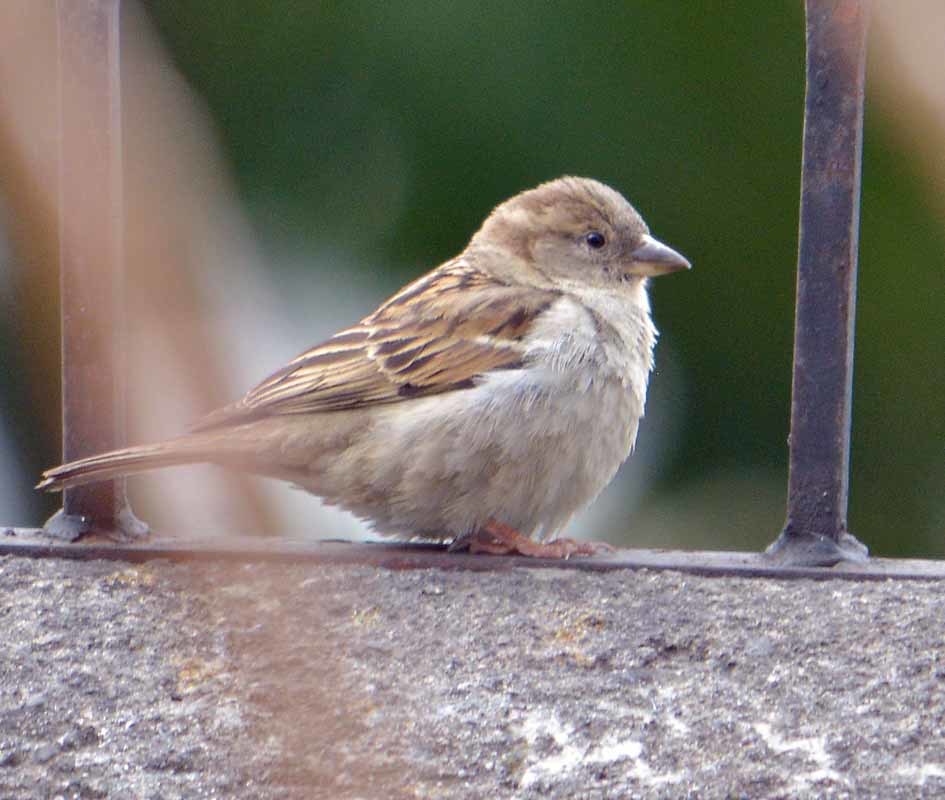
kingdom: Animalia
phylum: Chordata
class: Aves
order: Passeriformes
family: Passeridae
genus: Passer
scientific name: Passer domesticus
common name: House sparrow
